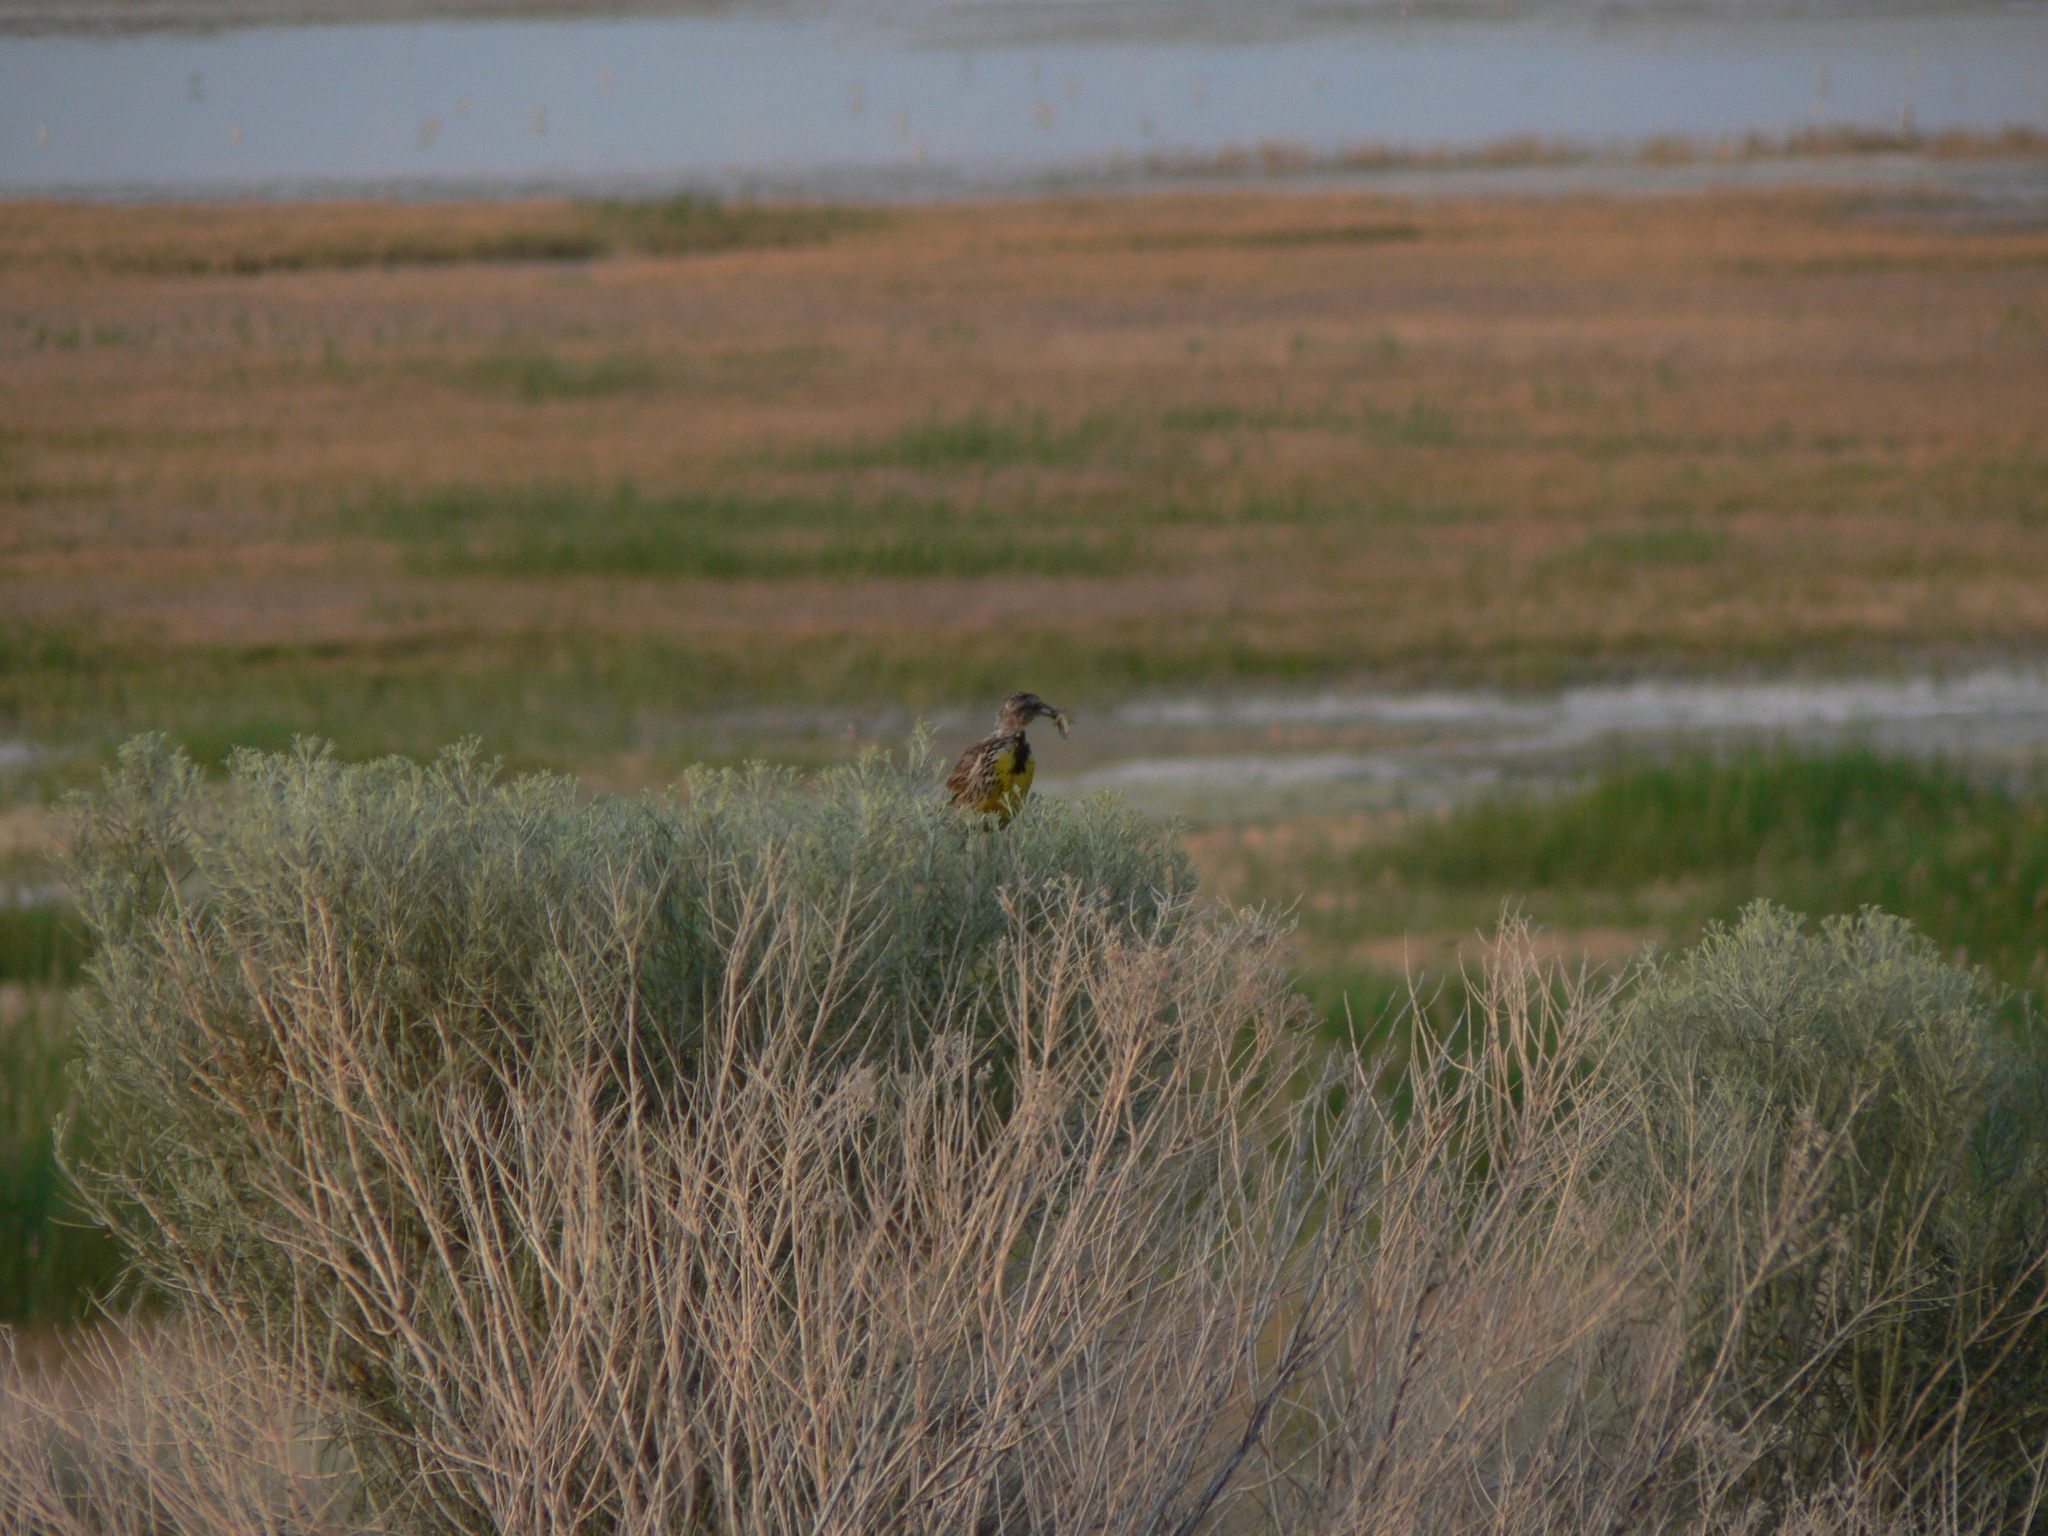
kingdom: Animalia
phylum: Chordata
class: Aves
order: Passeriformes
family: Icteridae
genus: Sturnella
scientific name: Sturnella neglecta
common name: Western meadowlark
